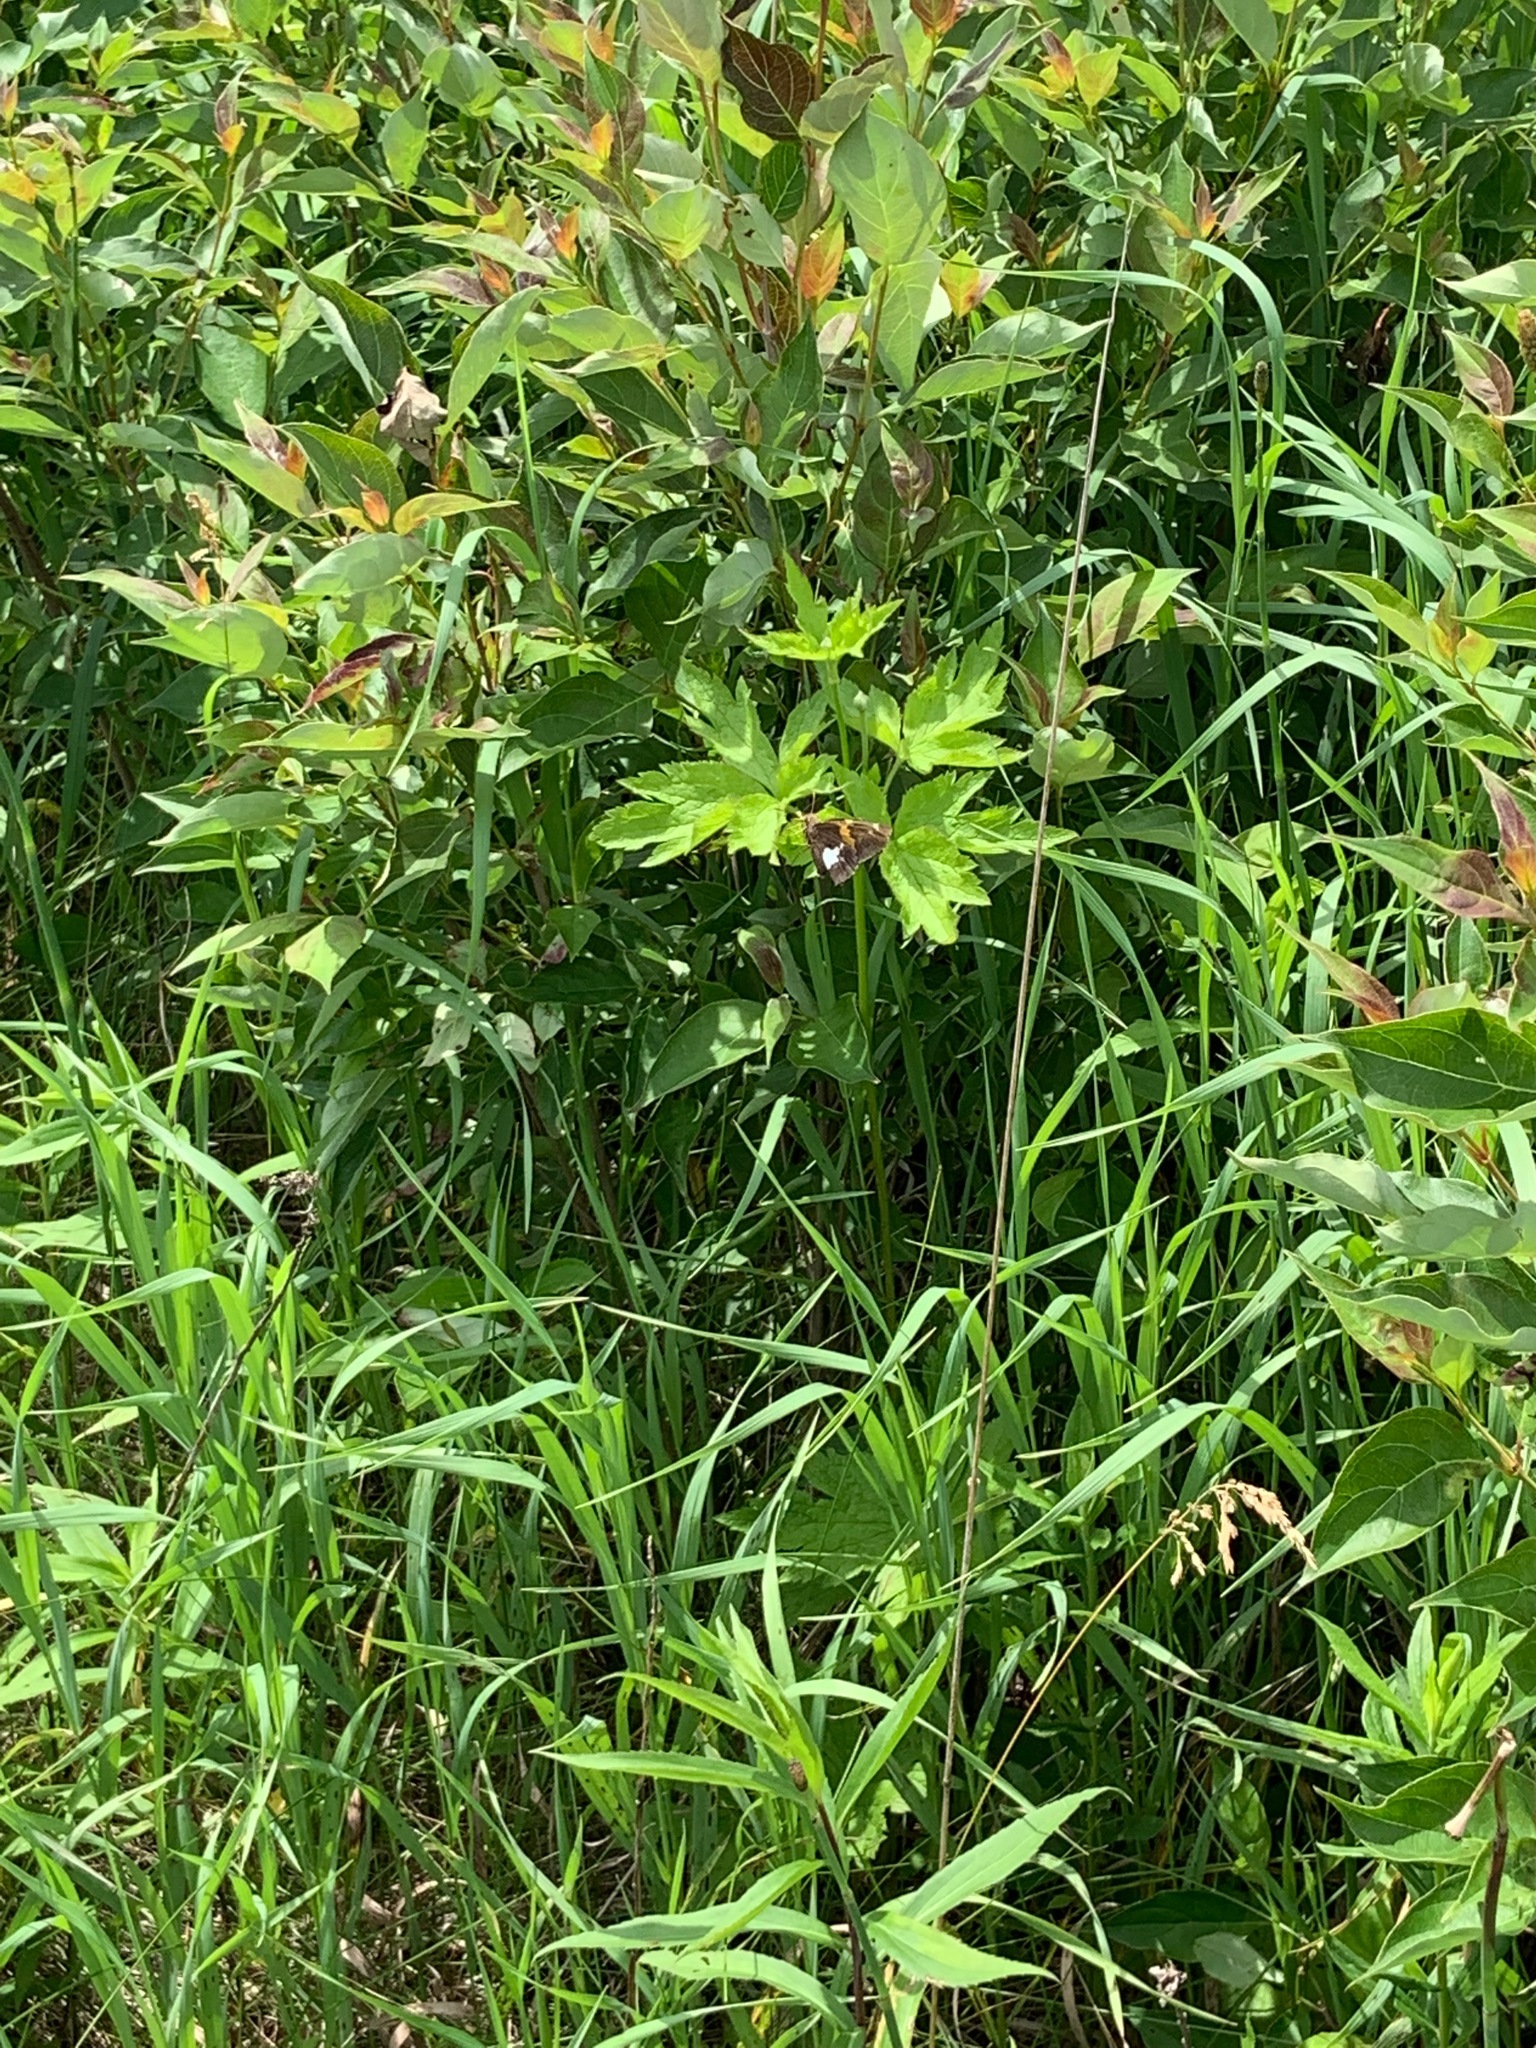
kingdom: Animalia
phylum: Arthropoda
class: Insecta
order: Lepidoptera
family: Hesperiidae
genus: Epargyreus
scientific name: Epargyreus clarus
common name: Silver-spotted skipper
